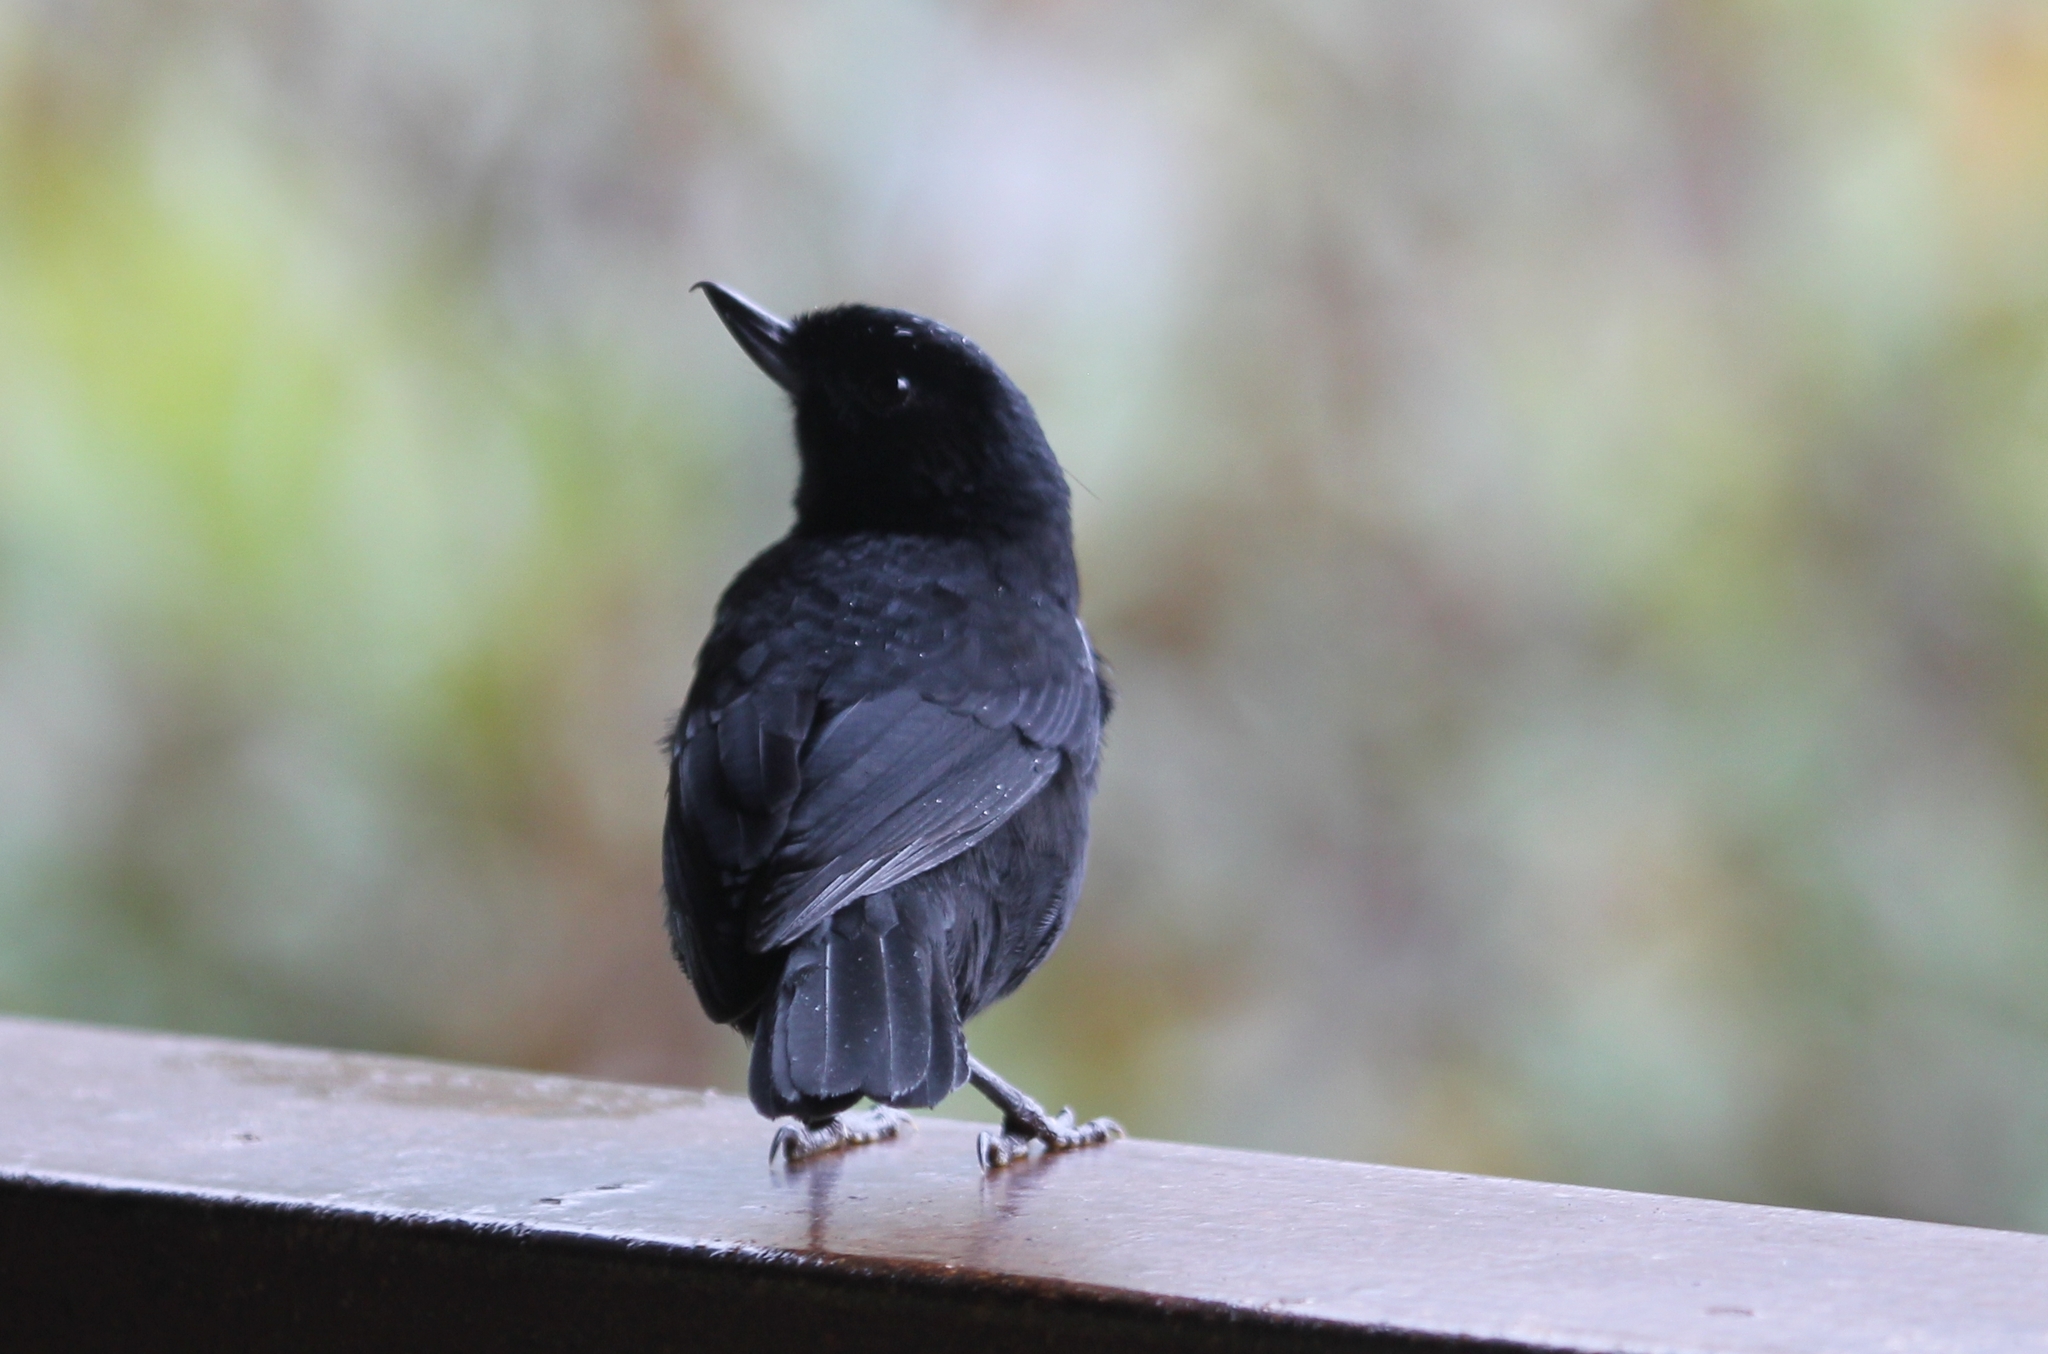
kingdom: Animalia
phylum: Chordata
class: Aves
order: Passeriformes
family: Thraupidae
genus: Diglossa
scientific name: Diglossa lafresnayii
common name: Glossy flowerpiercer
